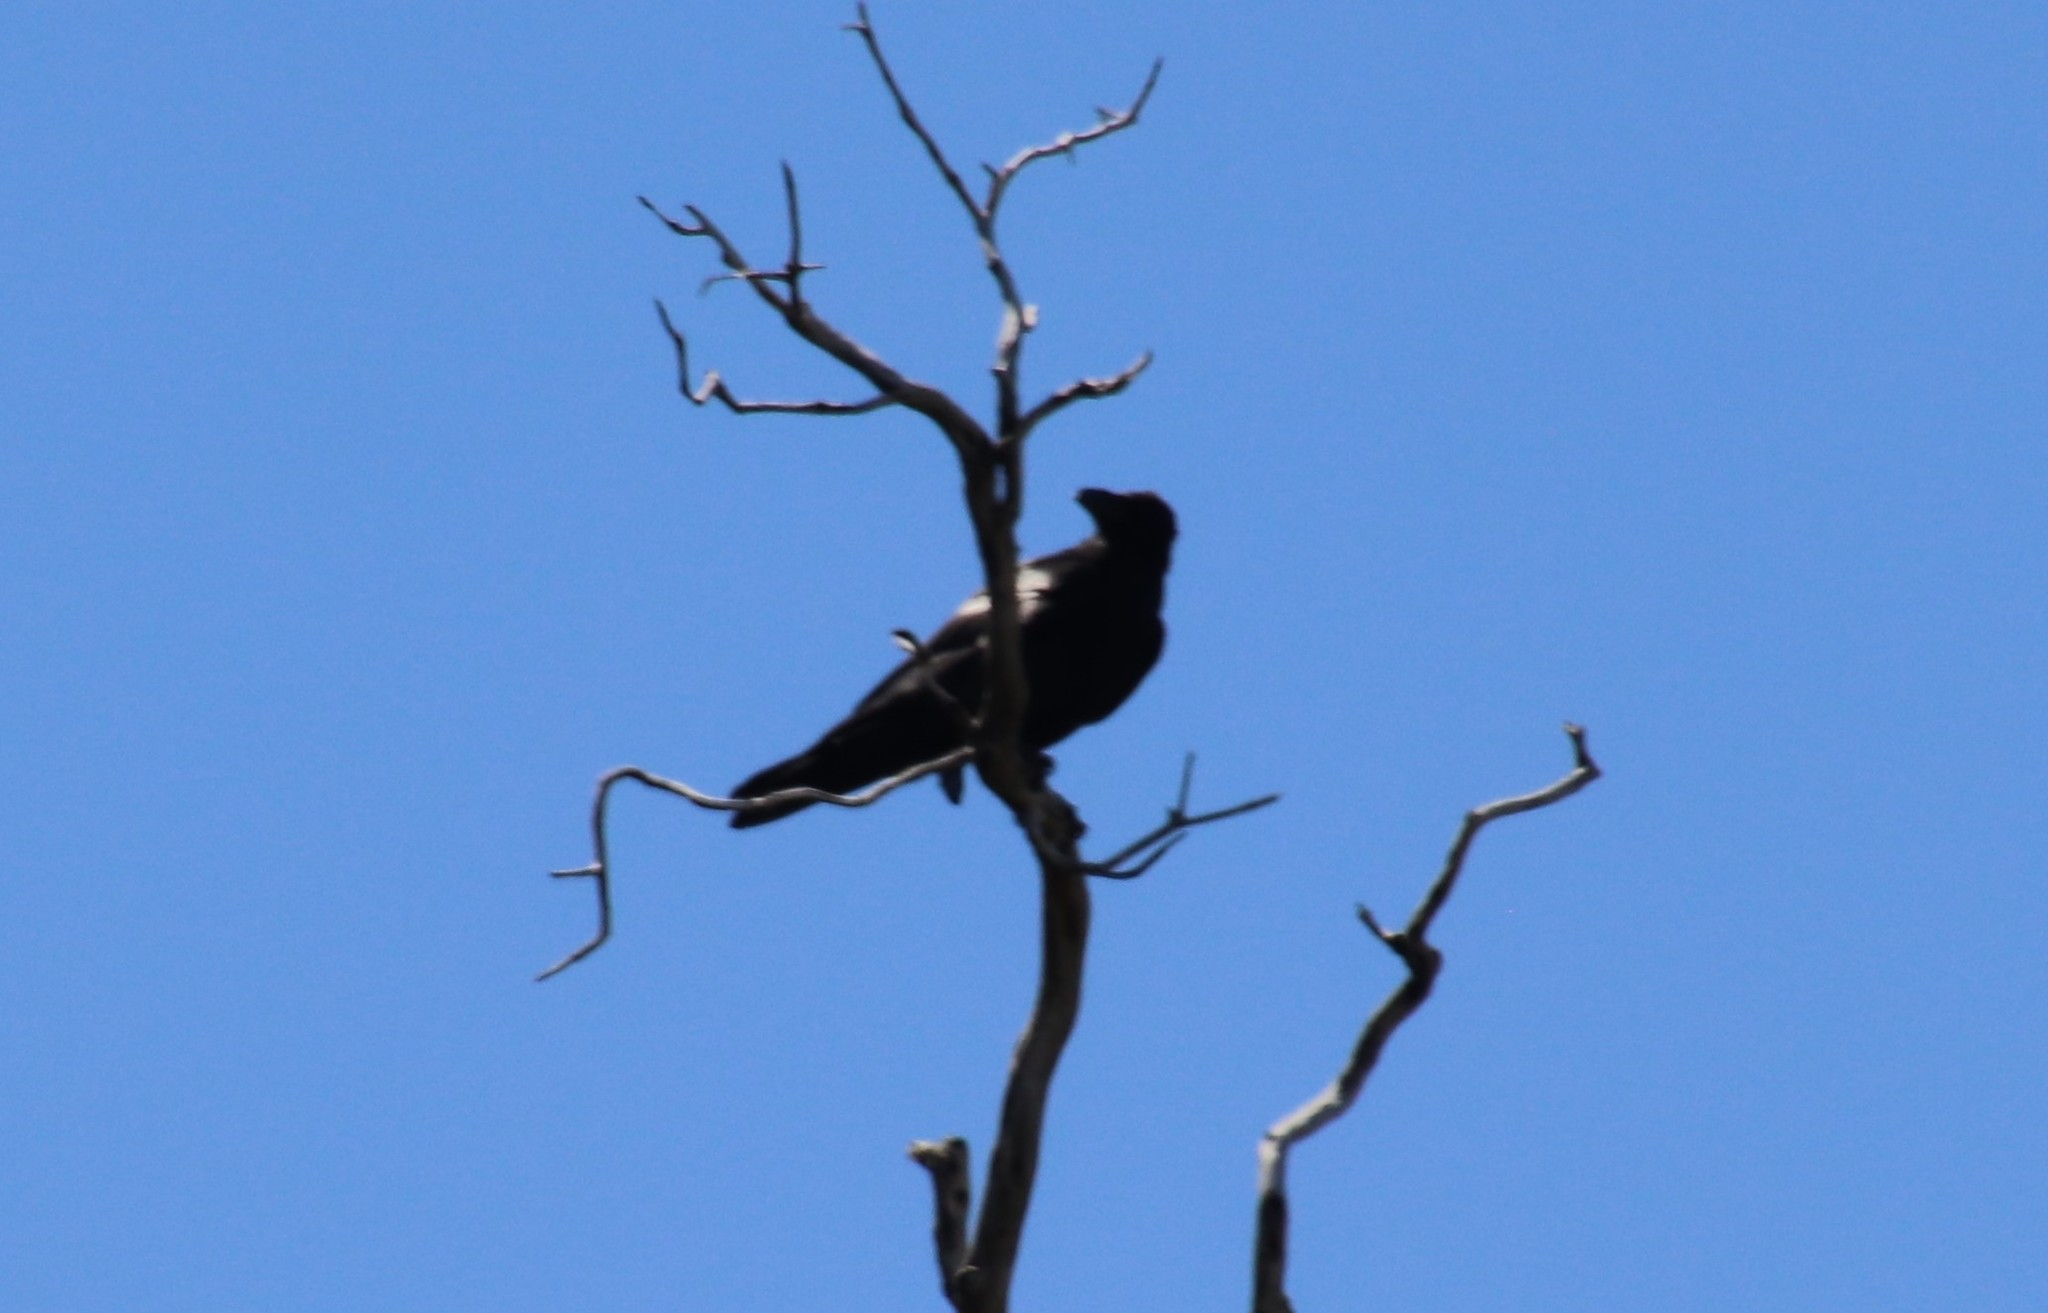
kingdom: Animalia
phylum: Chordata
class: Aves
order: Passeriformes
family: Corvidae
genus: Corvus
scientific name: Corvus corax
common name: Common raven
